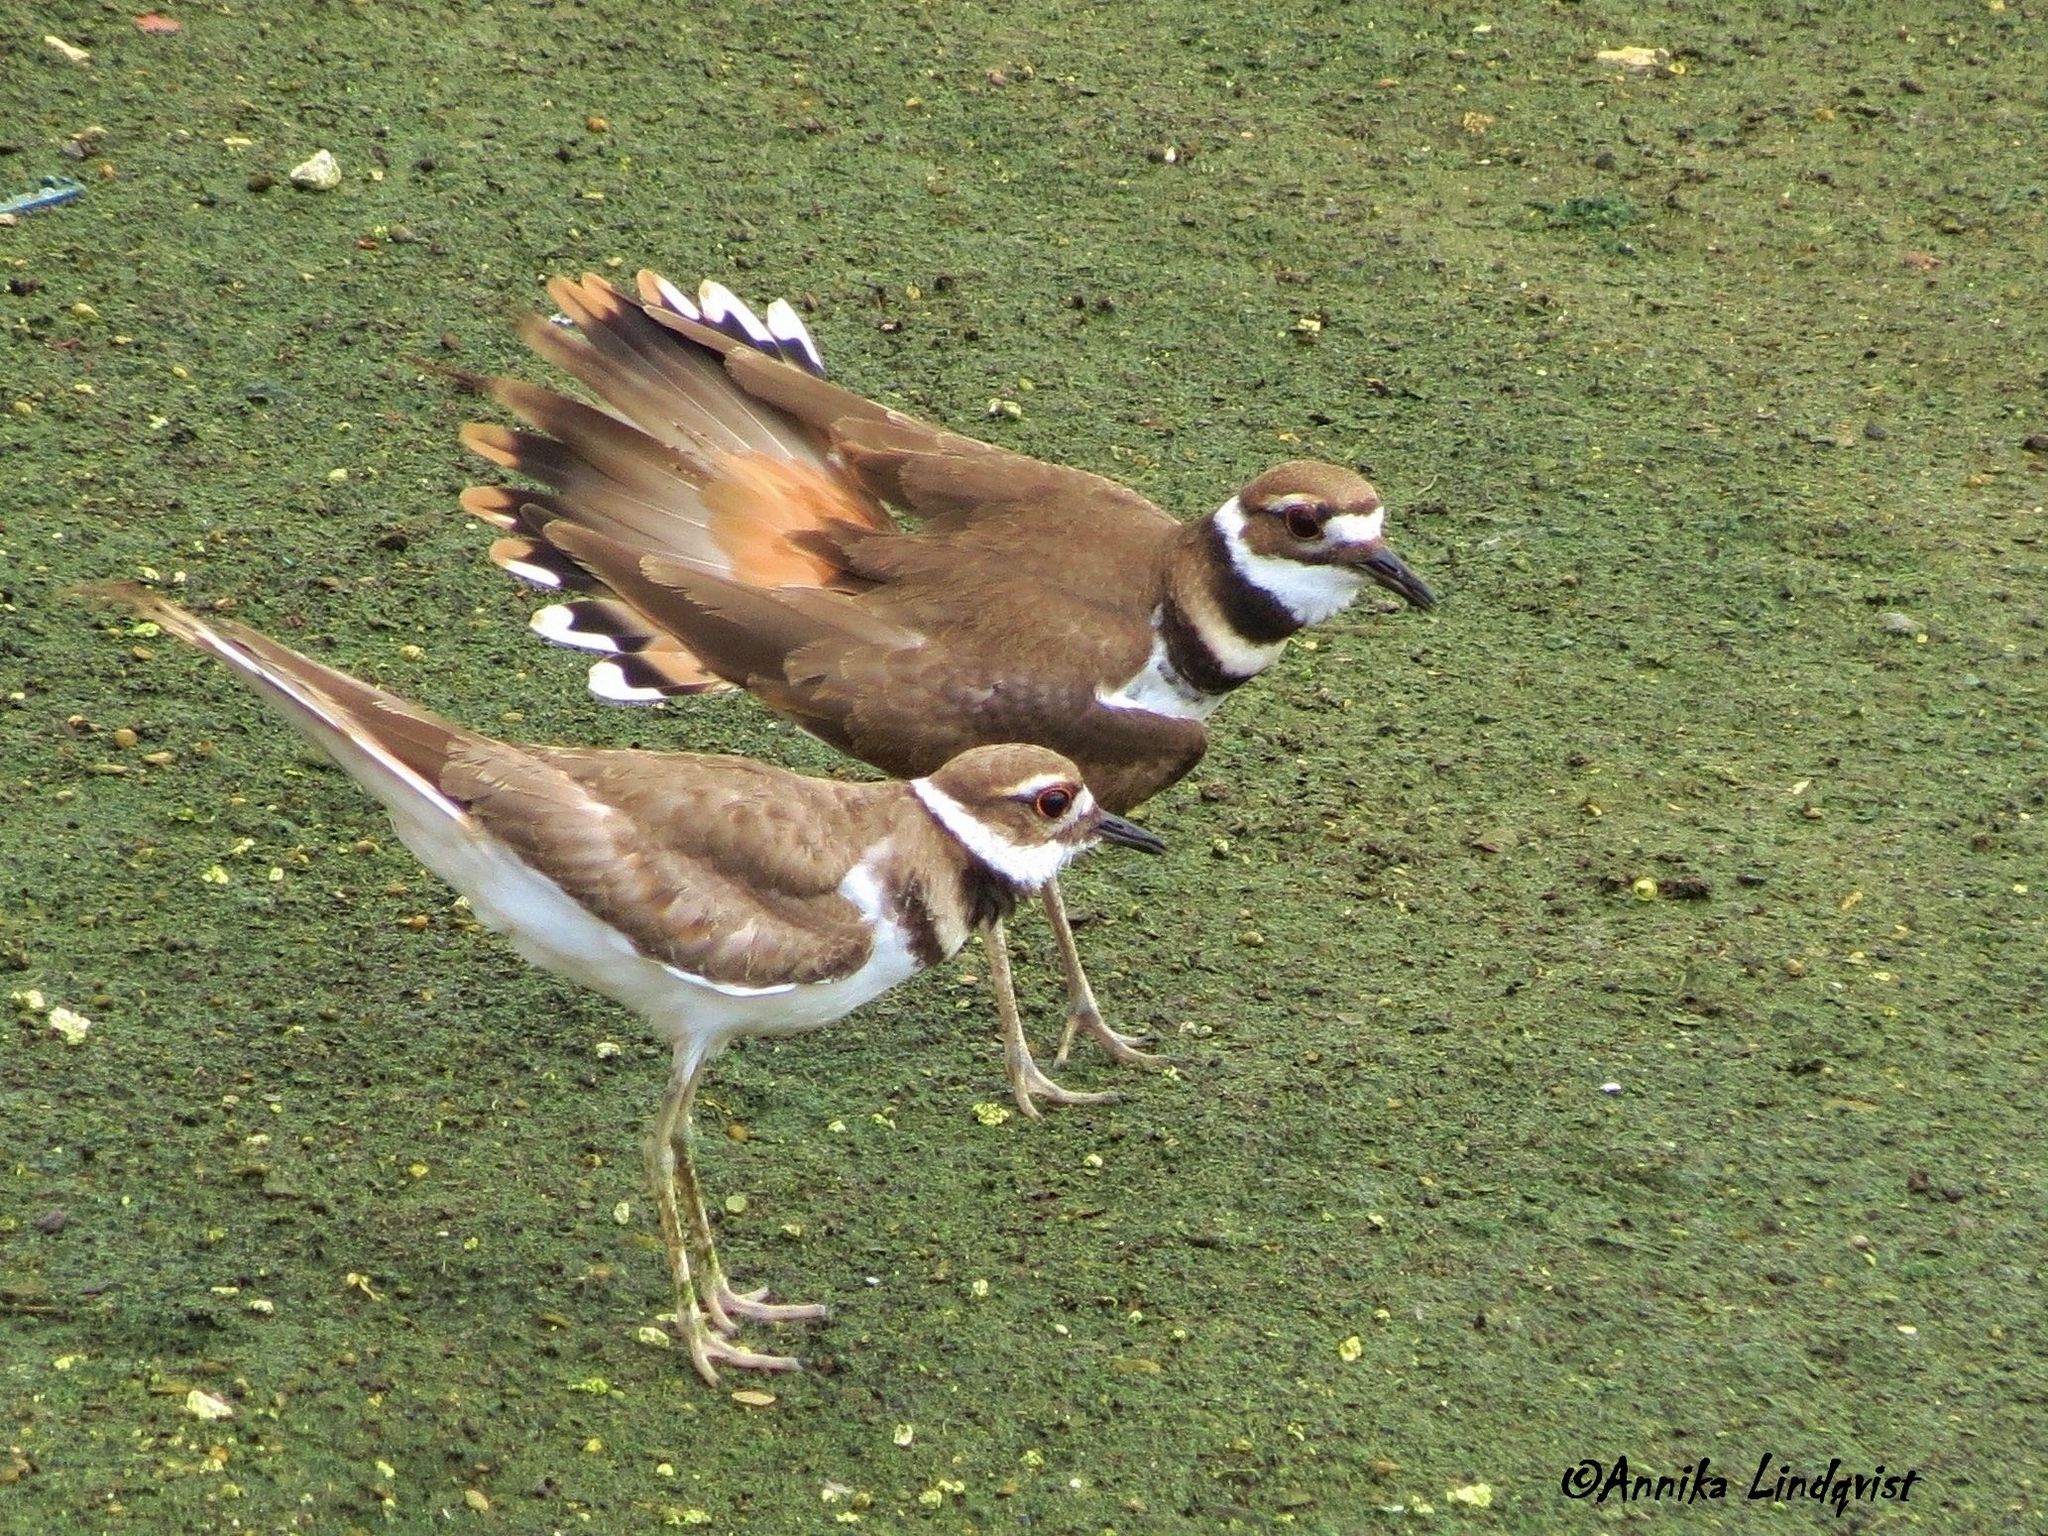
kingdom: Animalia
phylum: Chordata
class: Aves
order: Charadriiformes
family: Charadriidae
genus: Charadrius
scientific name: Charadrius vociferus
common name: Killdeer
